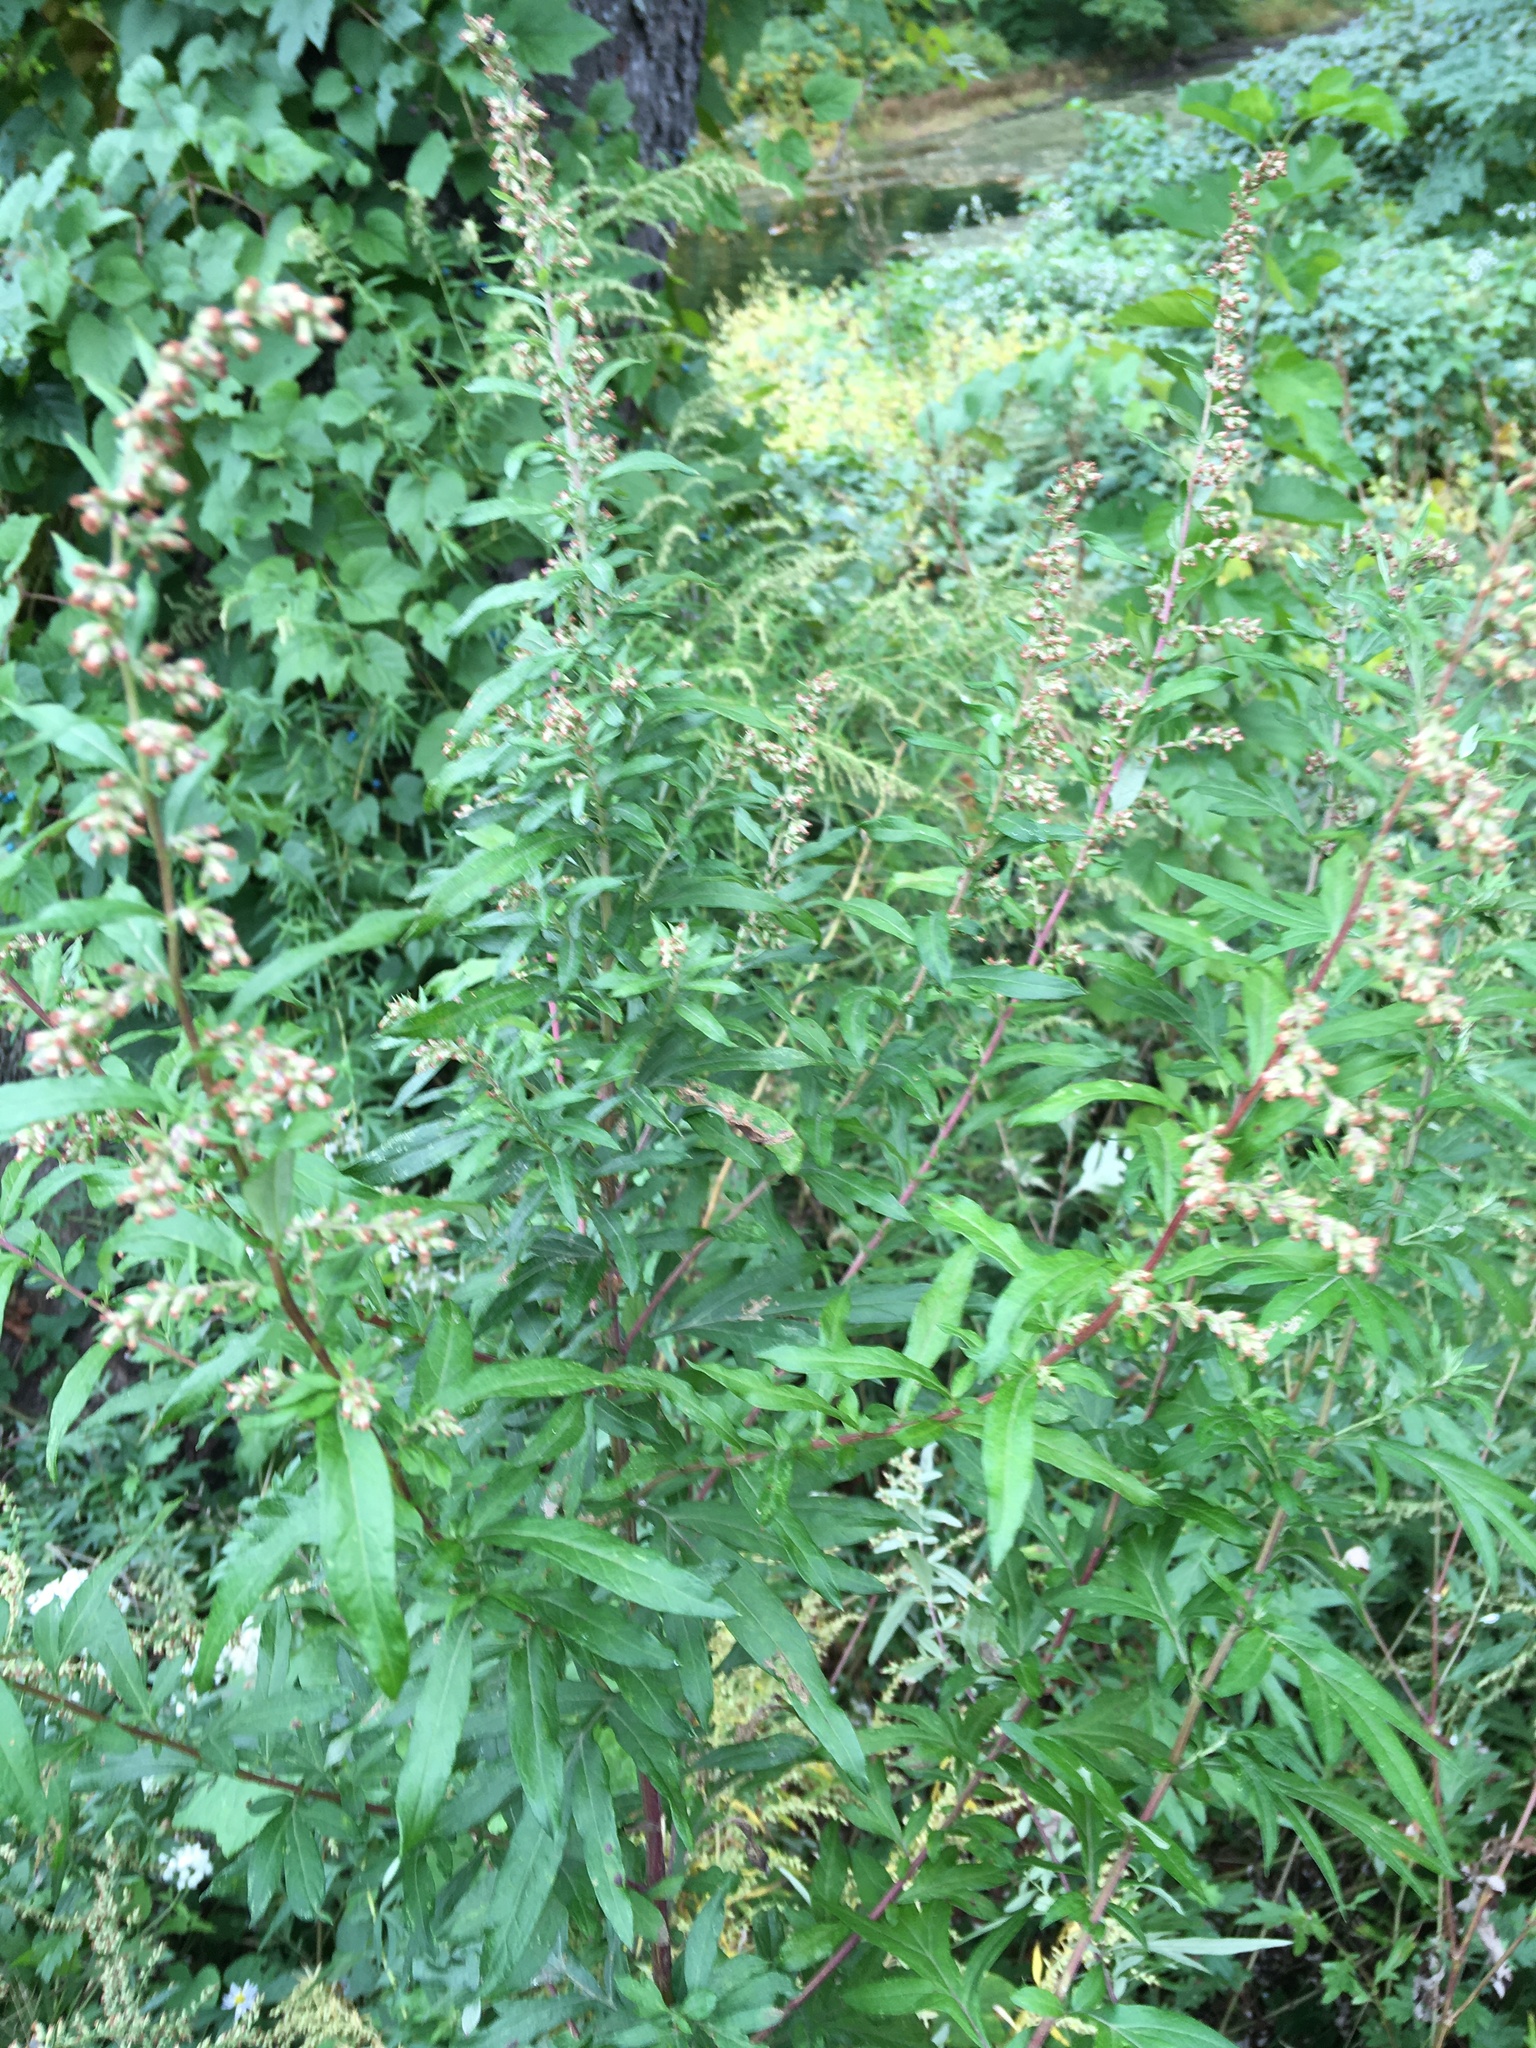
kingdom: Plantae
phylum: Tracheophyta
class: Magnoliopsida
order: Asterales
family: Asteraceae
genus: Artemisia
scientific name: Artemisia vulgaris
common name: Mugwort
